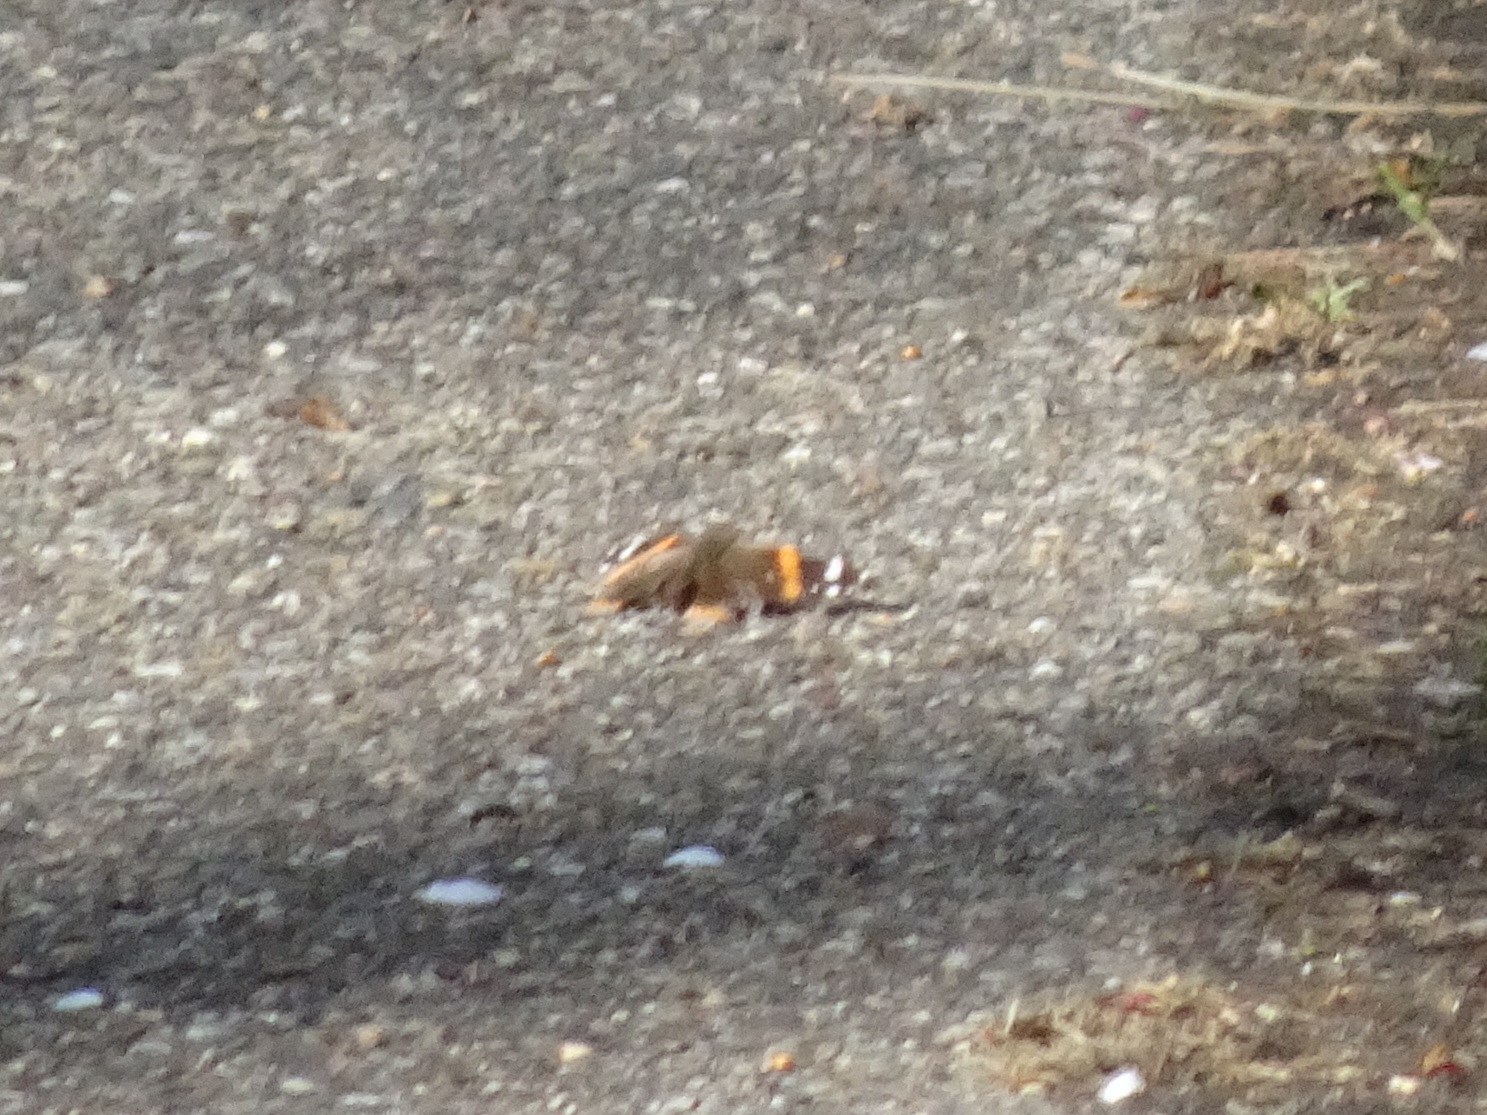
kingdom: Animalia
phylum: Arthropoda
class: Insecta
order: Lepidoptera
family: Nymphalidae
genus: Vanessa
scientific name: Vanessa atalanta
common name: Red admiral
